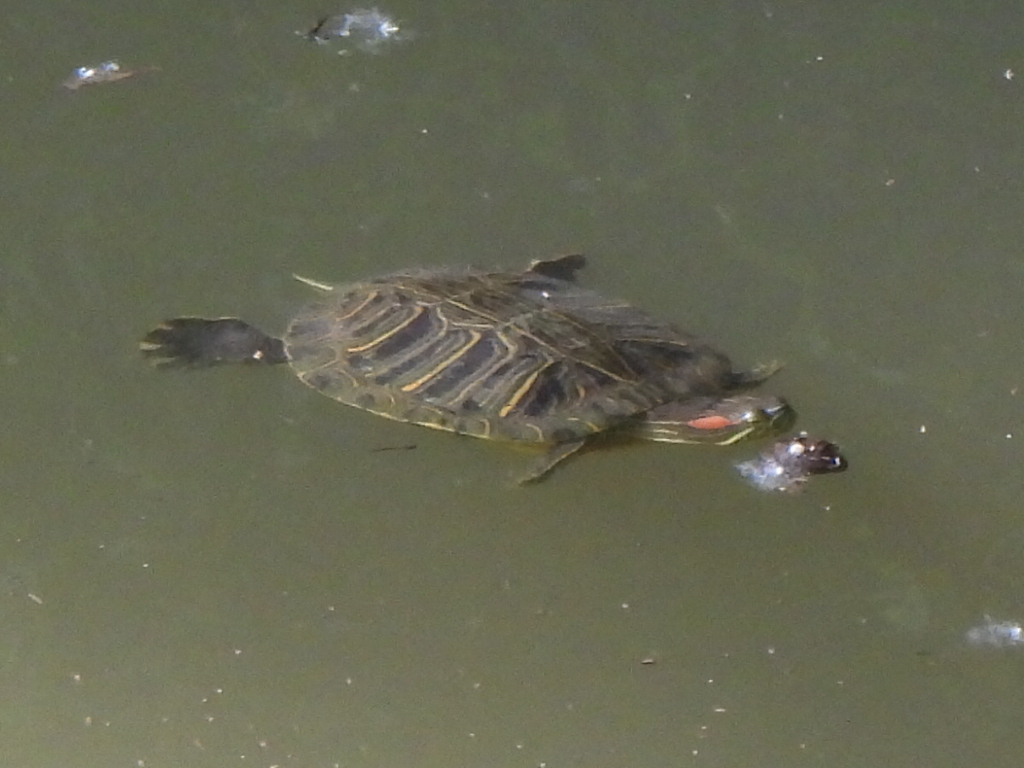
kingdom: Animalia
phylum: Chordata
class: Testudines
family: Emydidae
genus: Trachemys
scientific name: Trachemys scripta
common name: Slider
